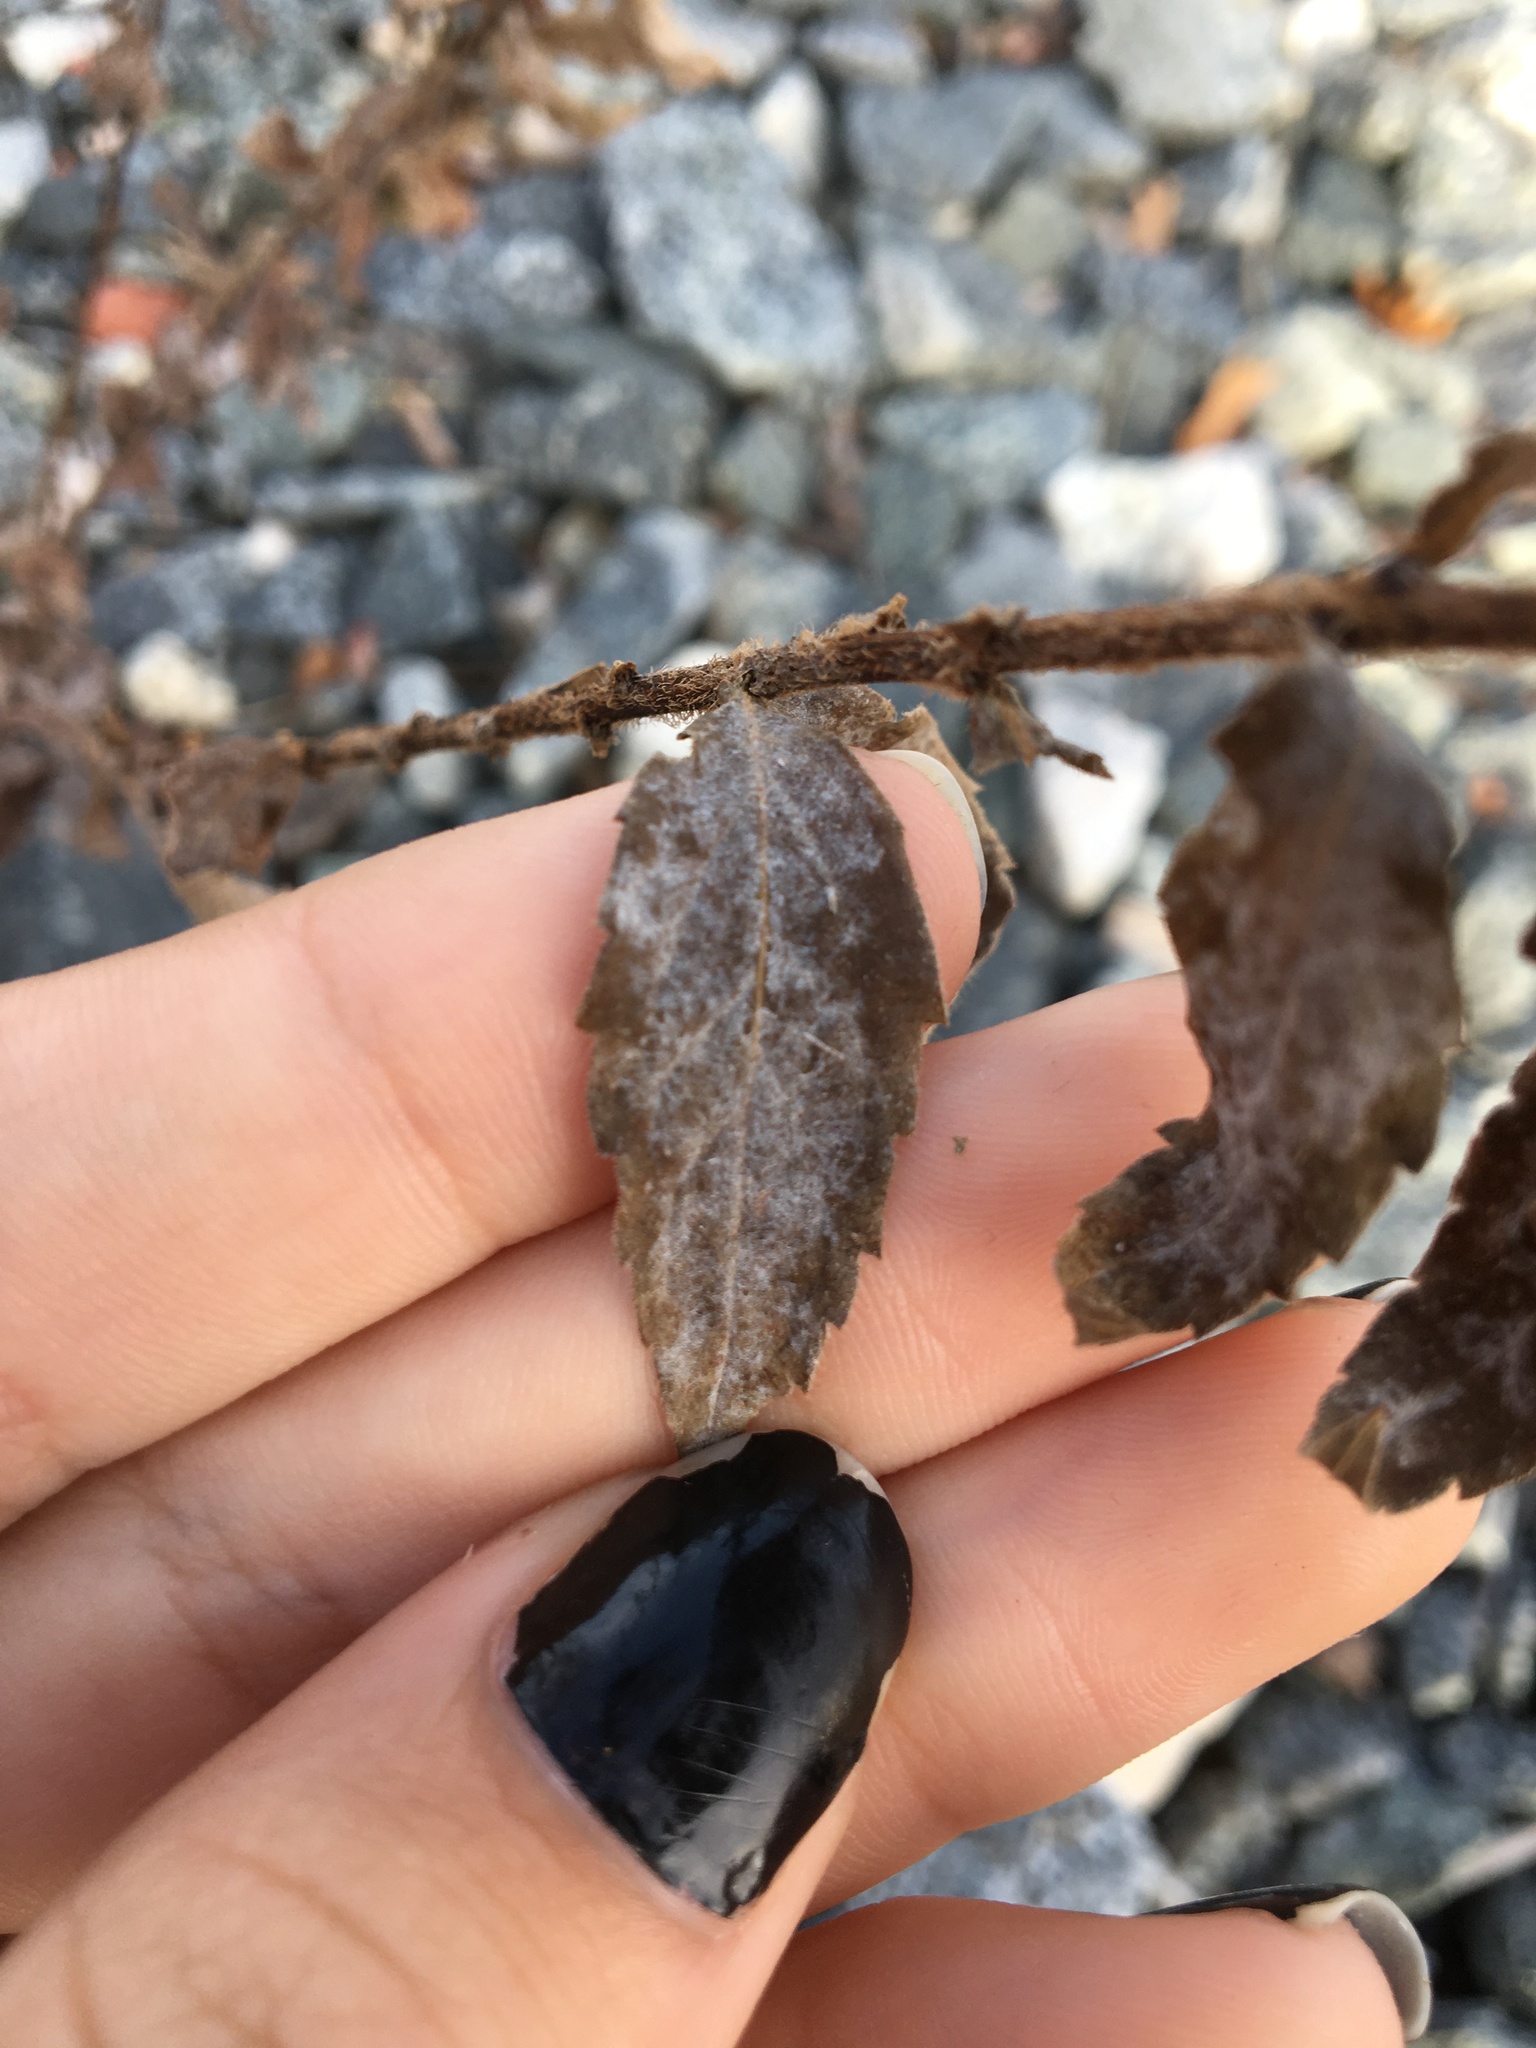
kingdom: Plantae
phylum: Tracheophyta
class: Magnoliopsida
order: Asterales
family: Asteraceae
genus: Solidago
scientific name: Solidago rugosa
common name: Rough-stemmed goldenrod
